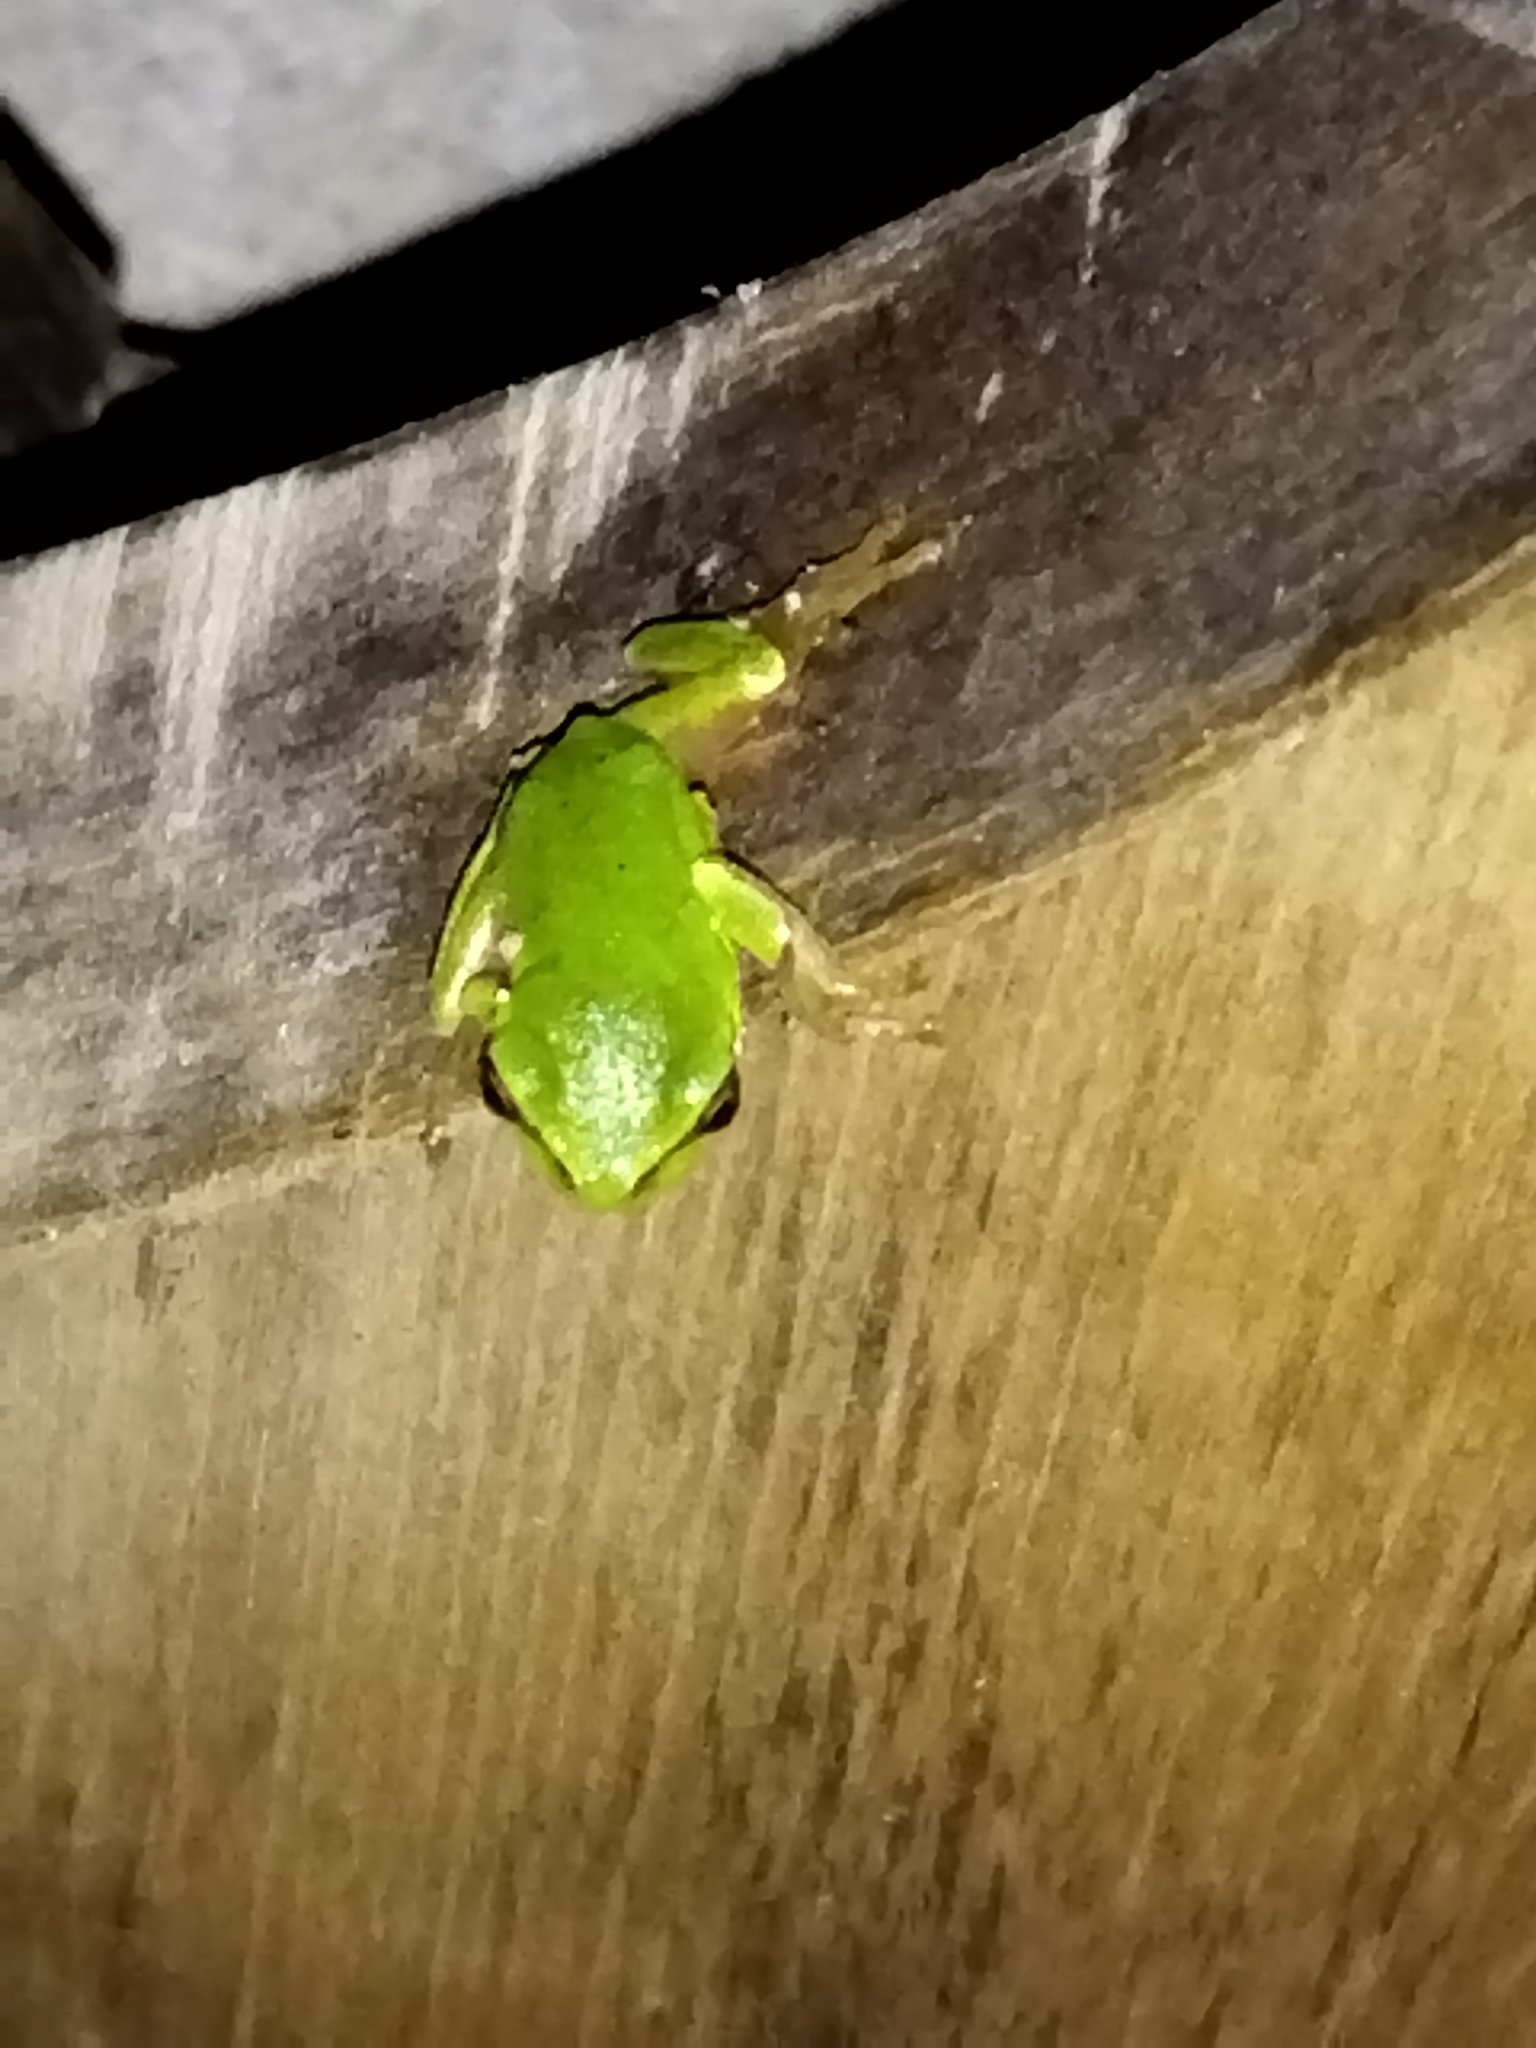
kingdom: Animalia
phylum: Chordata
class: Amphibia
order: Anura
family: Hylidae
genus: Hyla
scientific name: Hyla orientalis
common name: Caucasian treefrog
